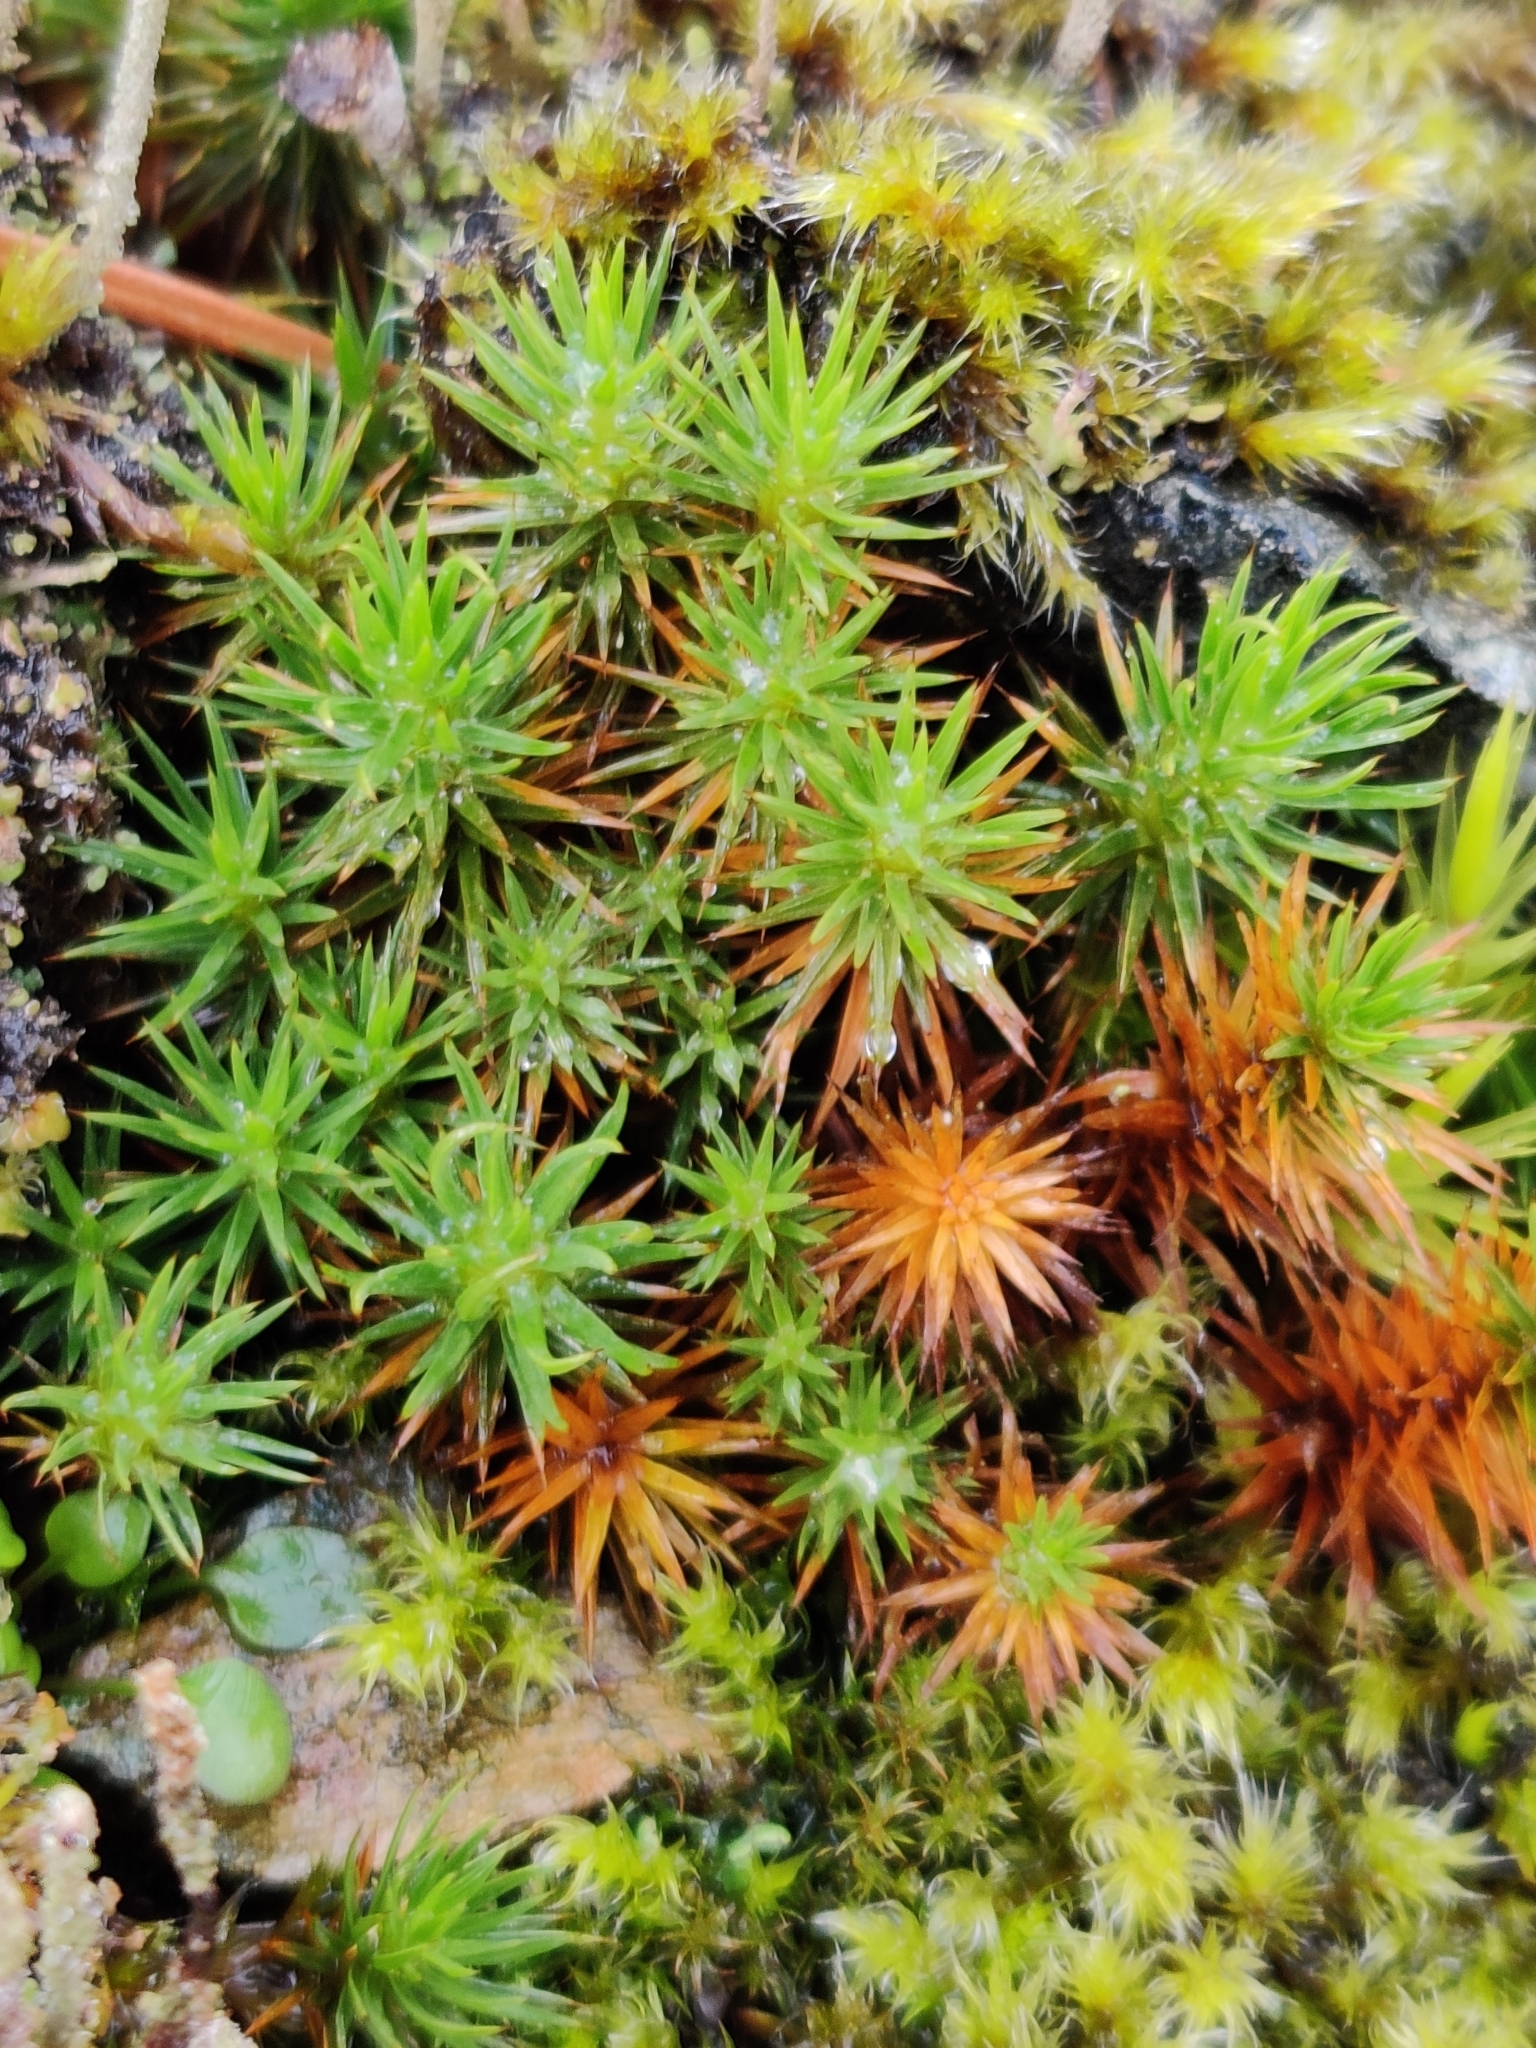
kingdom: Plantae
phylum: Bryophyta
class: Polytrichopsida
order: Polytrichales
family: Polytrichaceae
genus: Polytrichum
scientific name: Polytrichum juniperinum
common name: Juniper haircap moss
